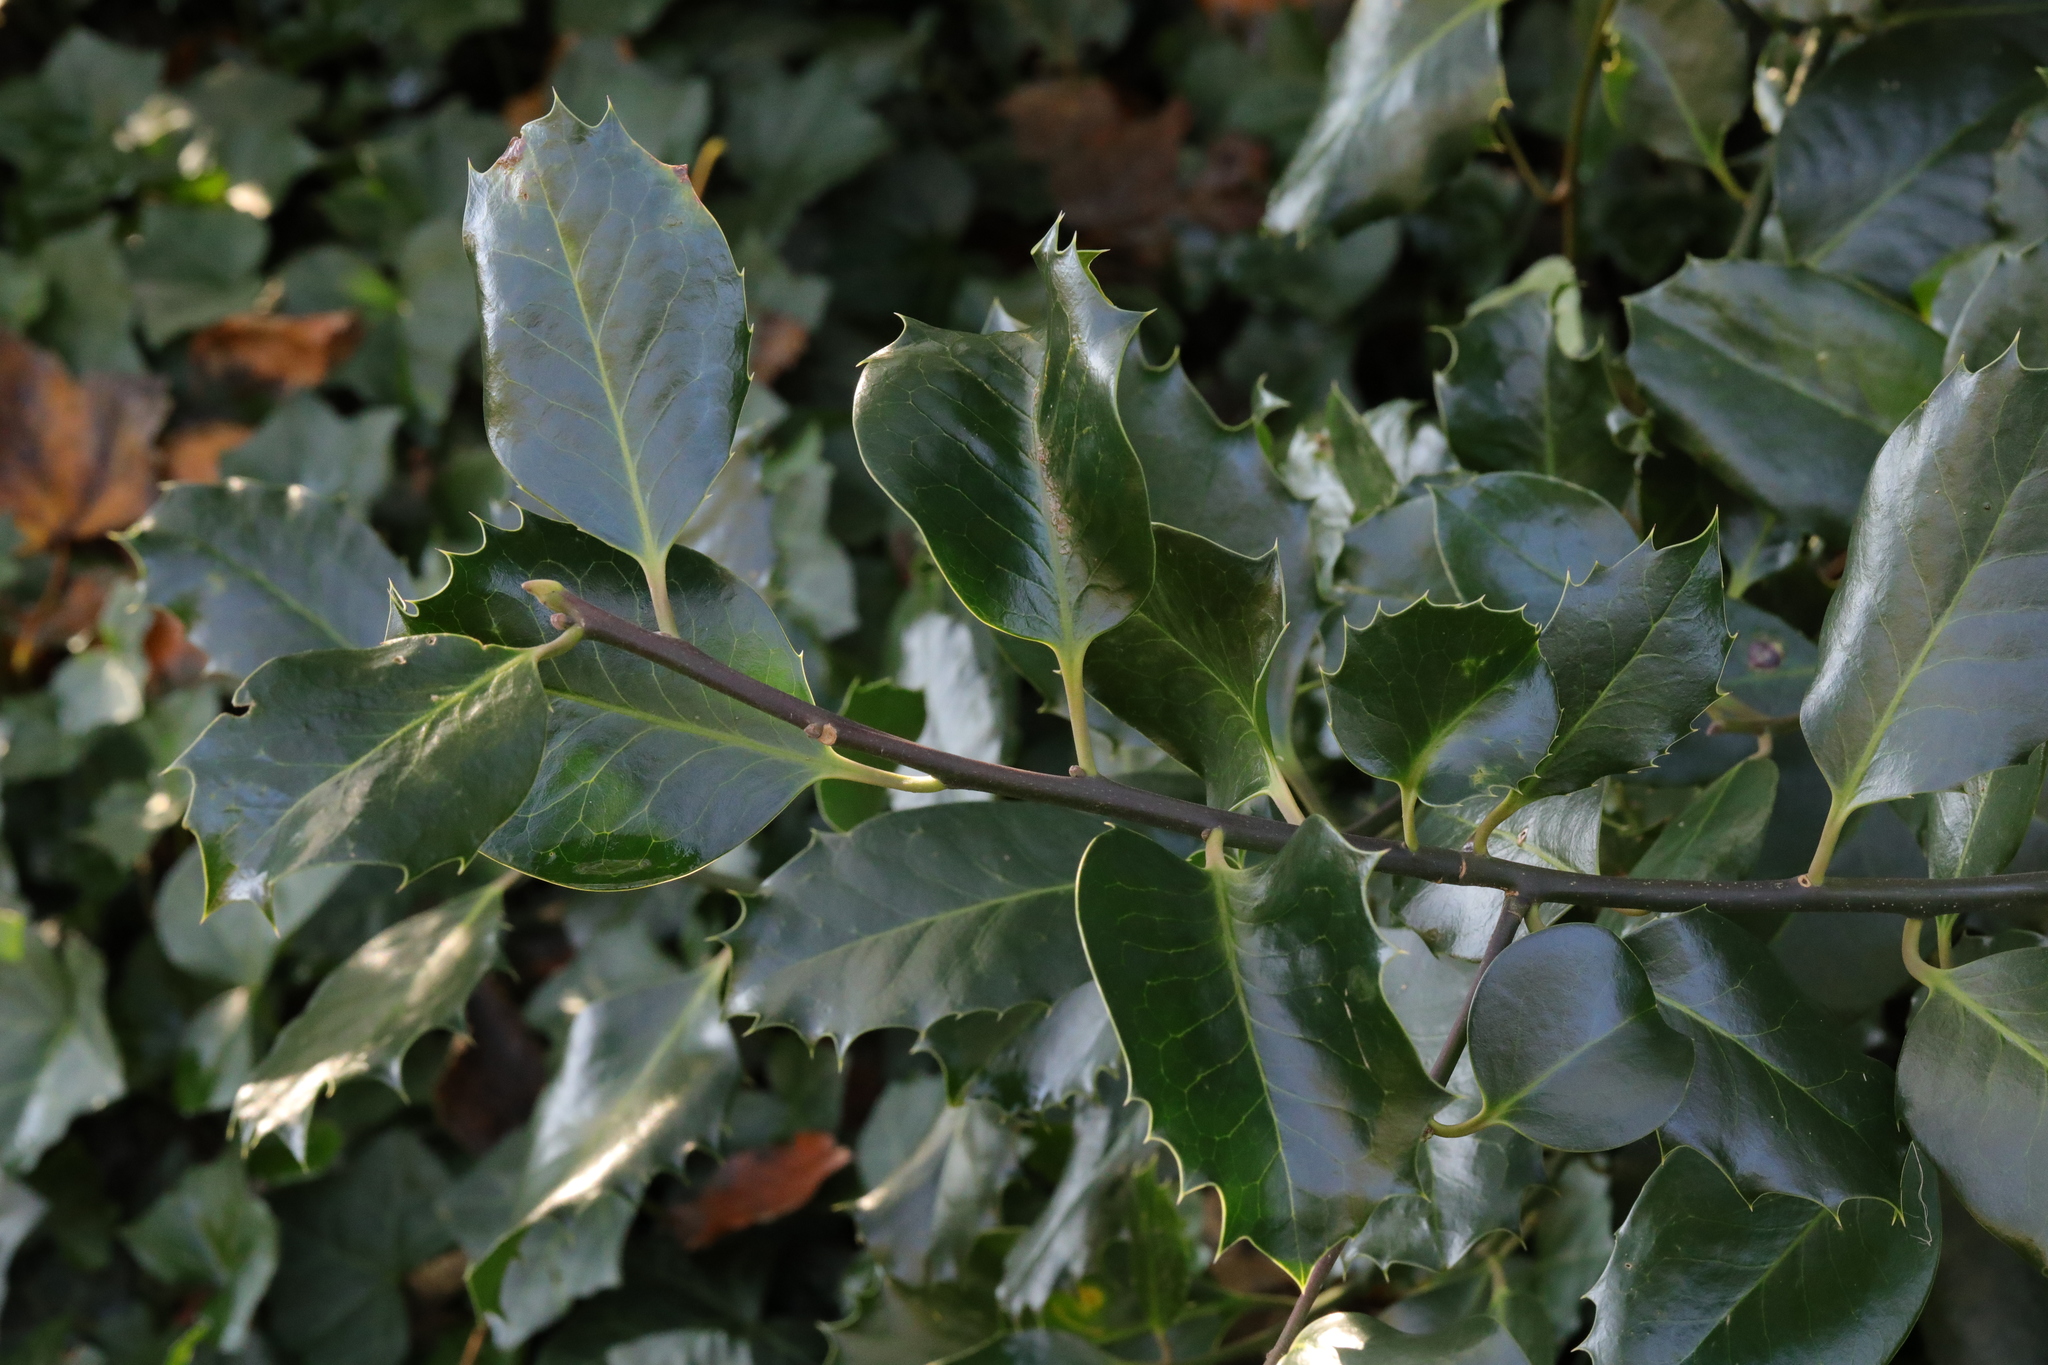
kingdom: Plantae
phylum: Tracheophyta
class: Magnoliopsida
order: Aquifoliales
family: Aquifoliaceae
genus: Ilex
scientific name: Ilex aquifolium
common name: English holly
